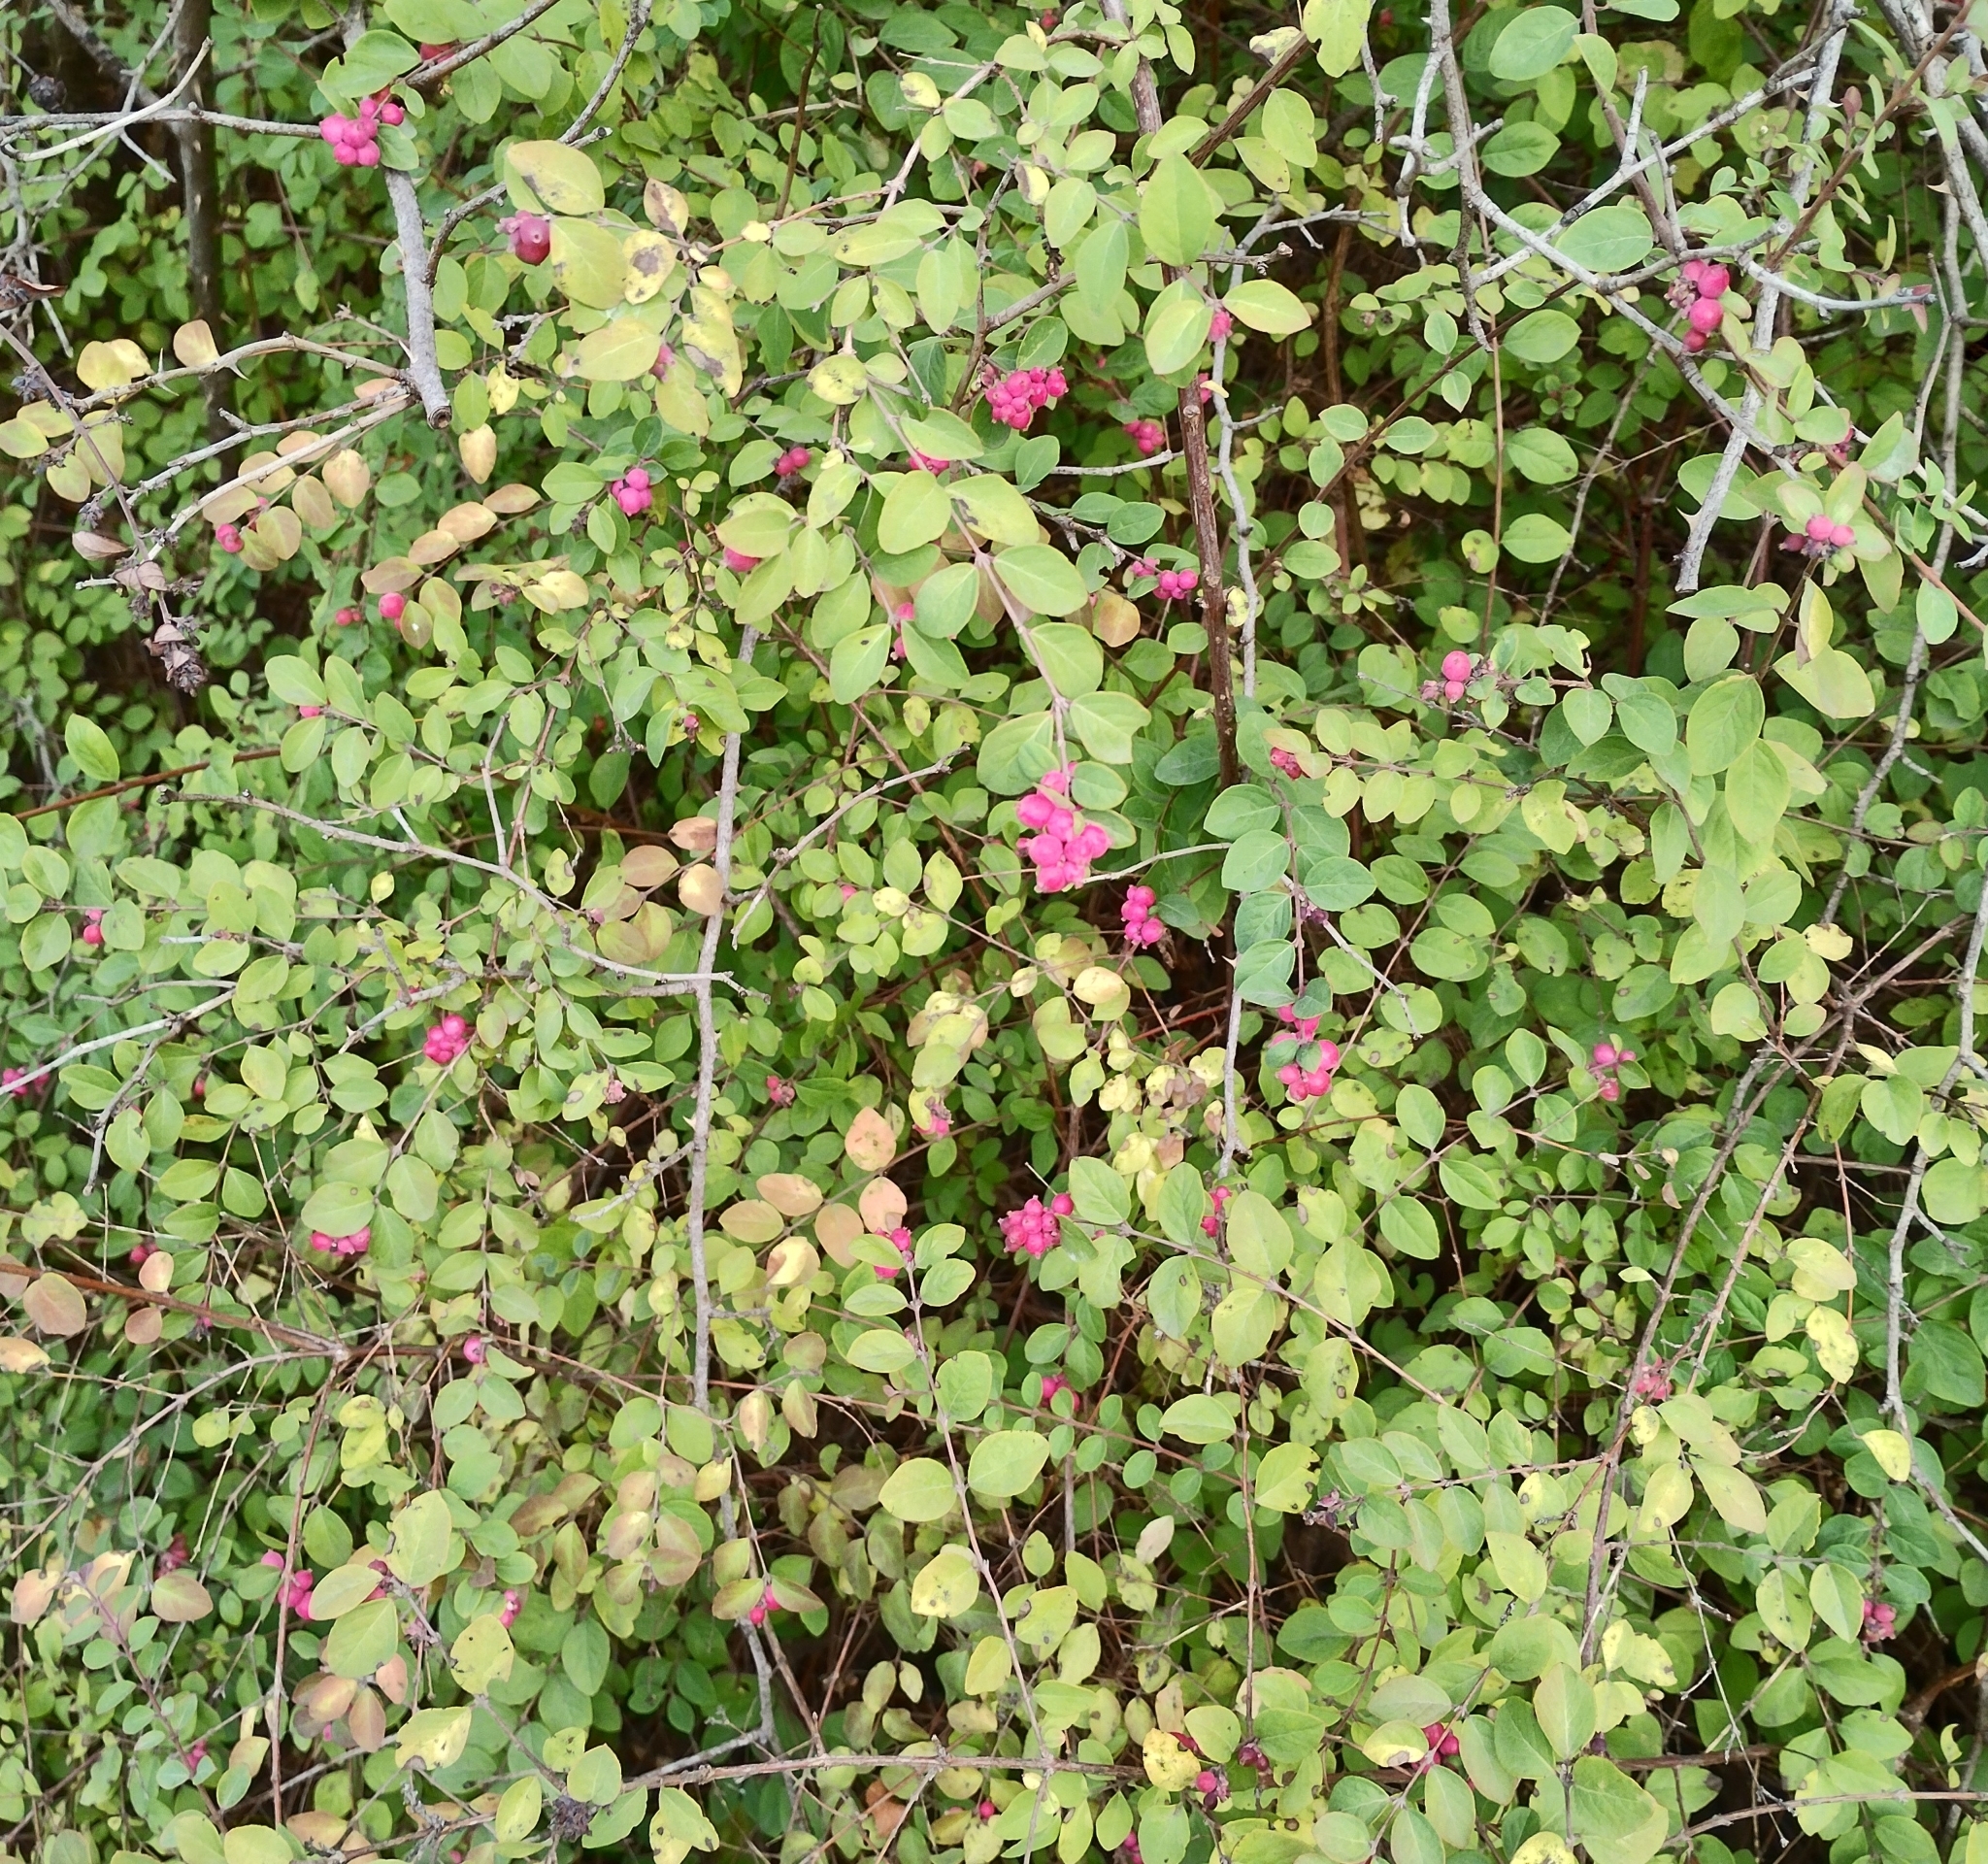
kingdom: Plantae
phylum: Tracheophyta
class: Magnoliopsida
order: Dipsacales
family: Caprifoliaceae
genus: Symphoricarpos
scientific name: Symphoricarpos orbiculatus
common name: Coralberry
